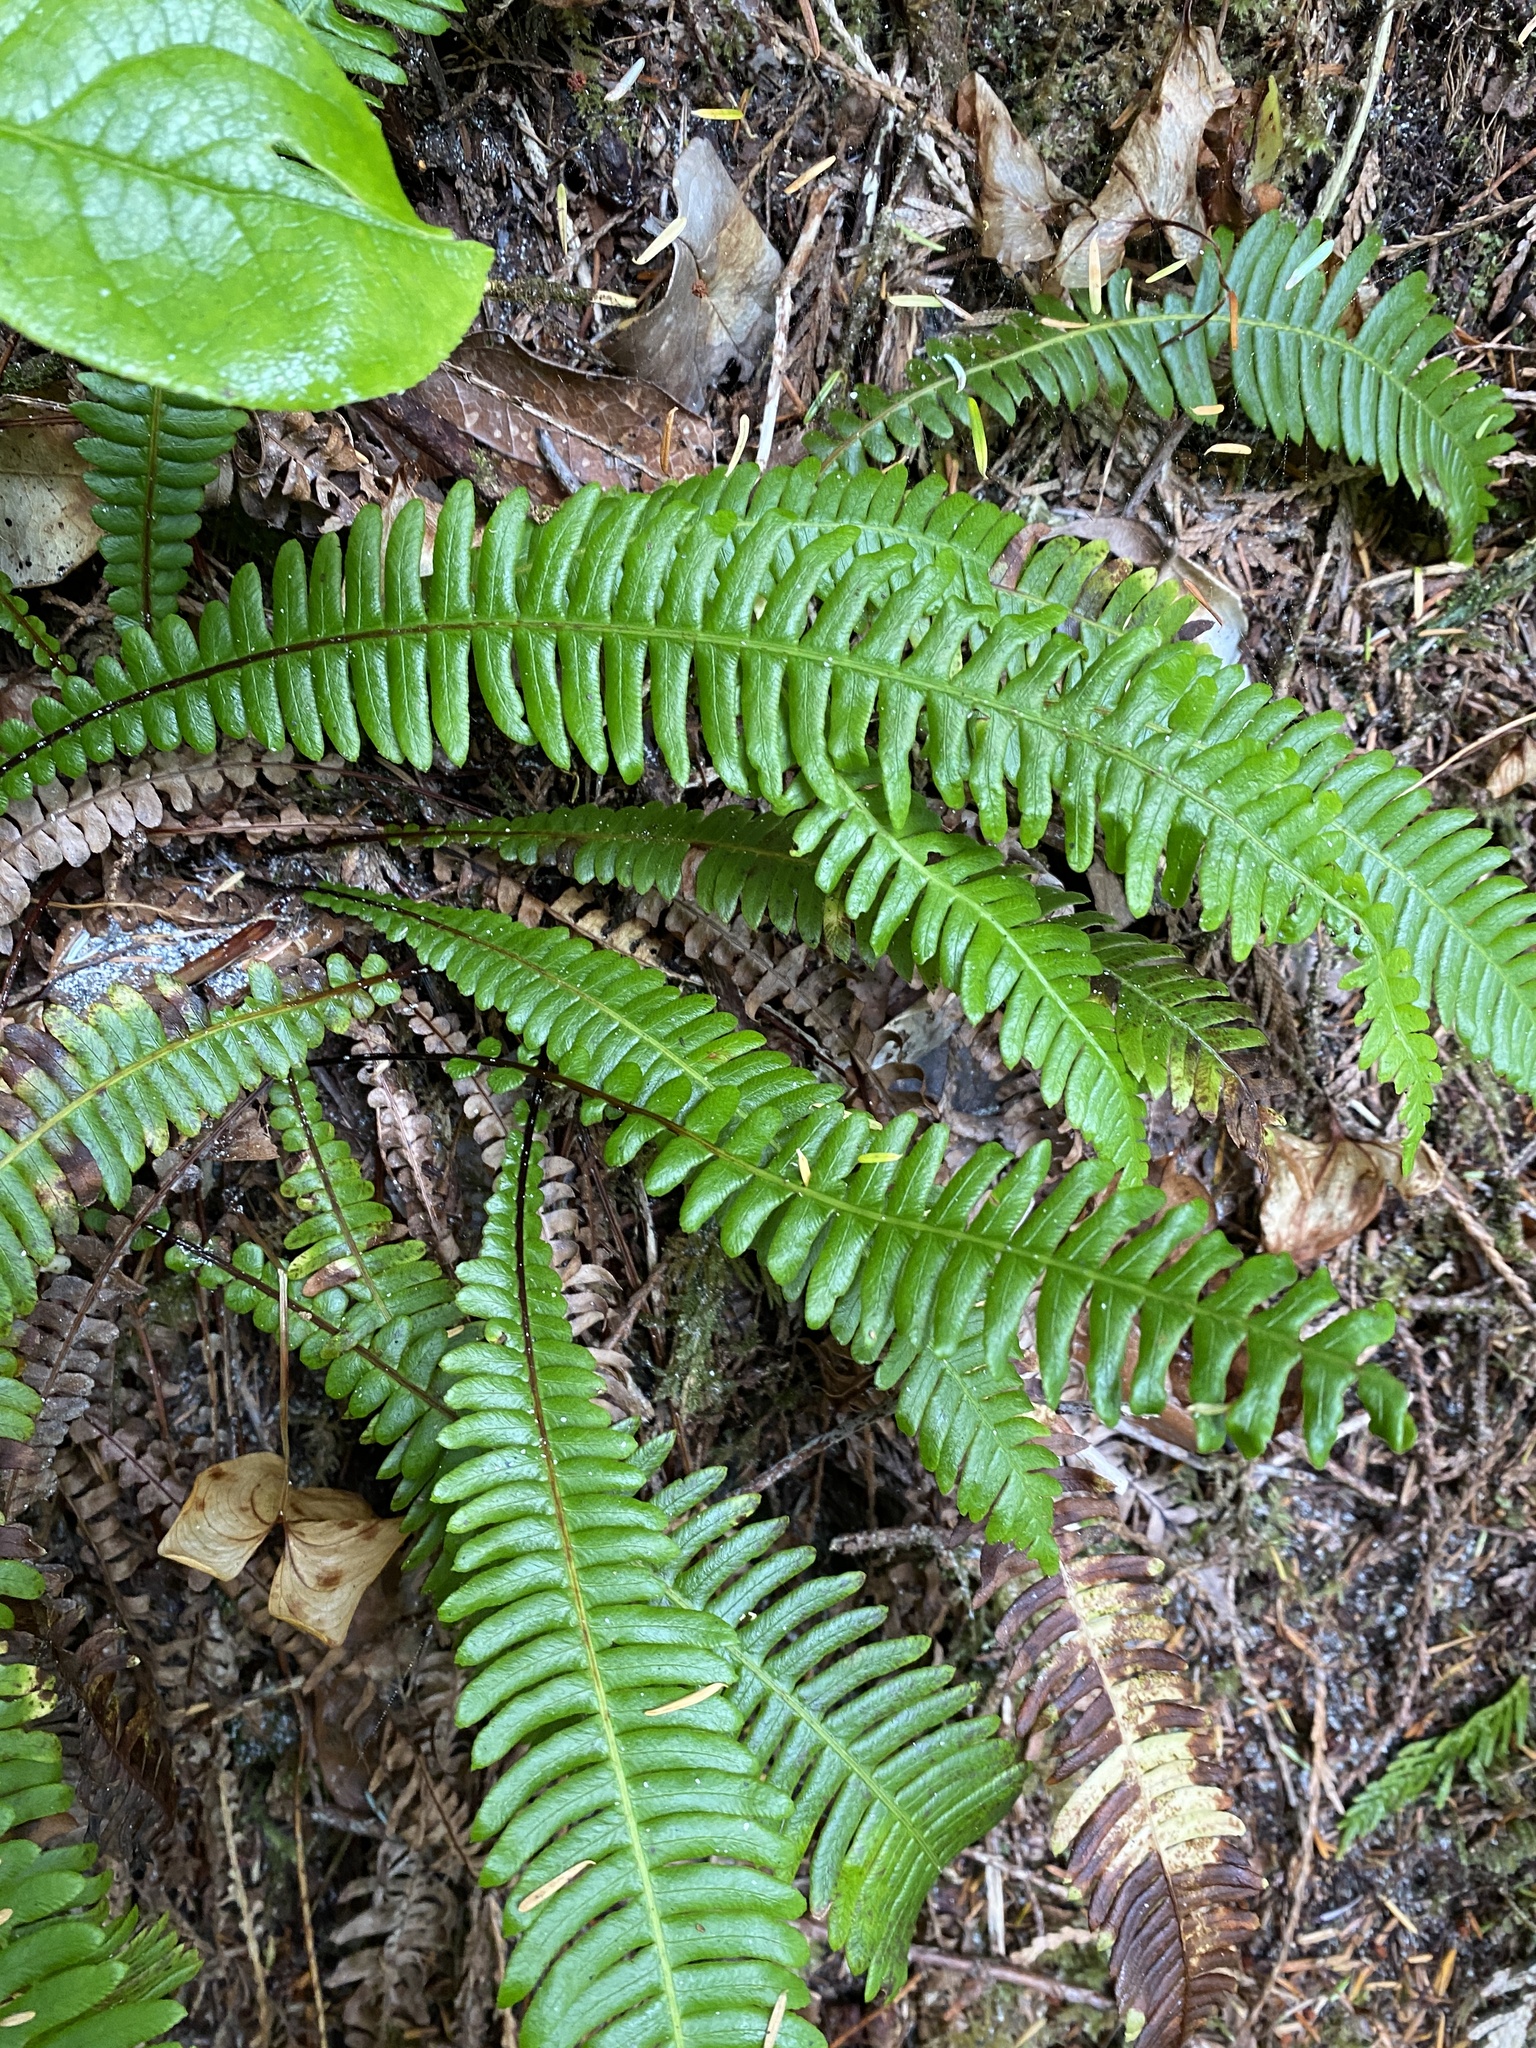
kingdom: Plantae
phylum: Tracheophyta
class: Polypodiopsida
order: Polypodiales
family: Blechnaceae
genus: Struthiopteris
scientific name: Struthiopteris spicant
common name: Deer fern
